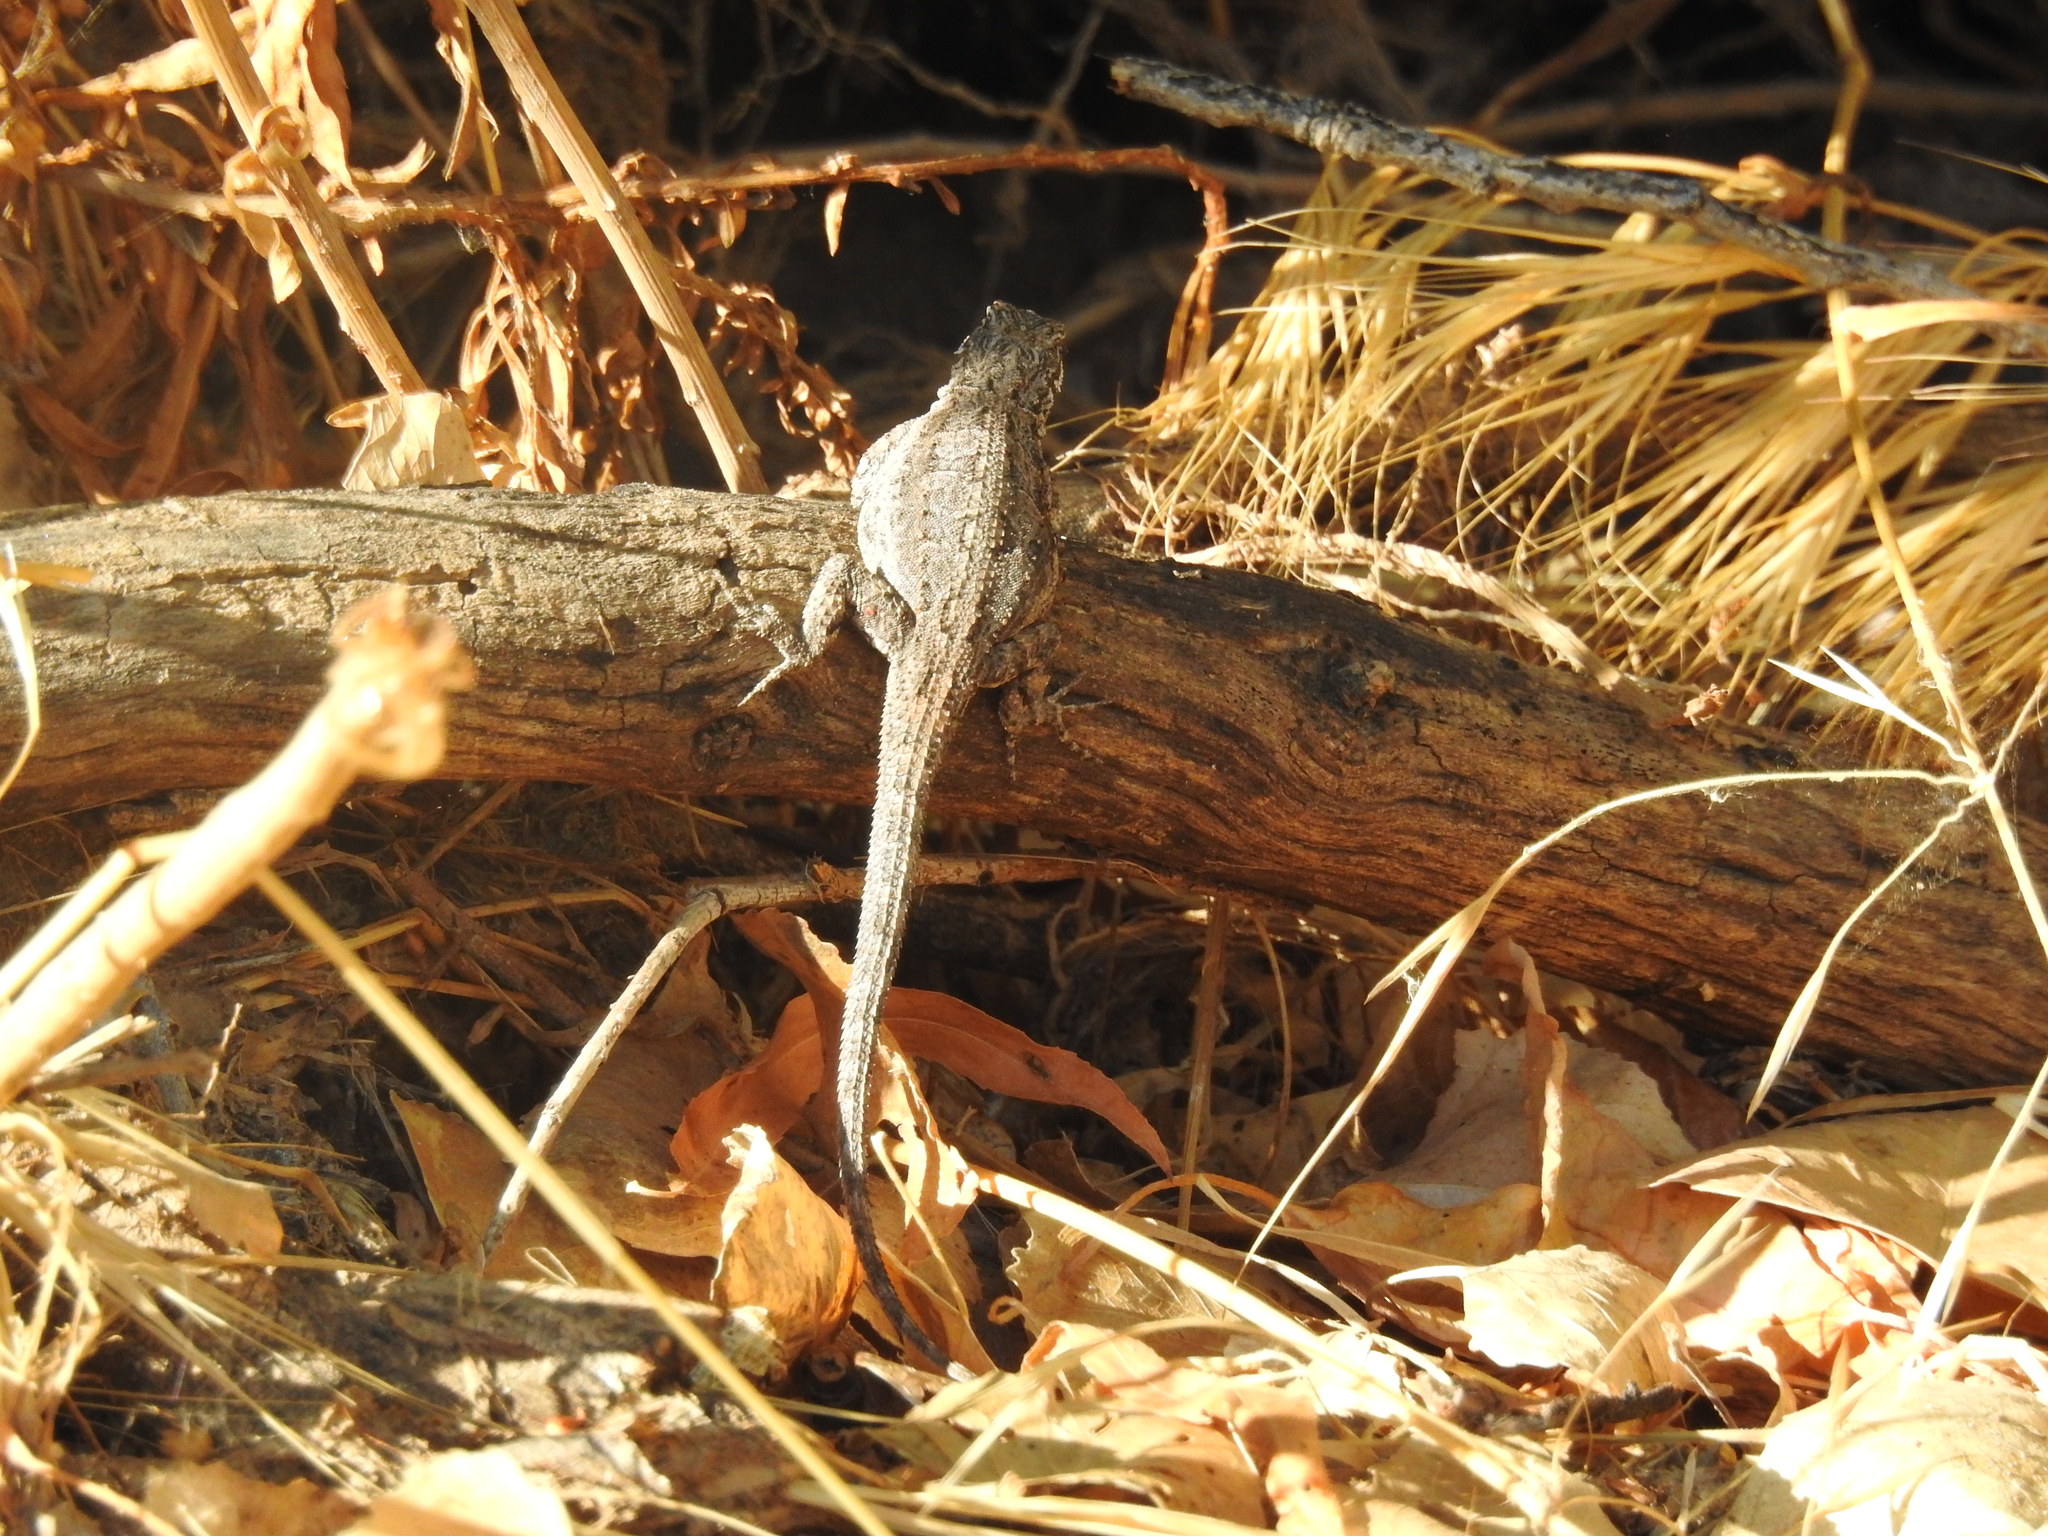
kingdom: Animalia
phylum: Chordata
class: Squamata
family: Phrynosomatidae
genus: Urosaurus
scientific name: Urosaurus ornatus
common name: Ornate tree lizard
